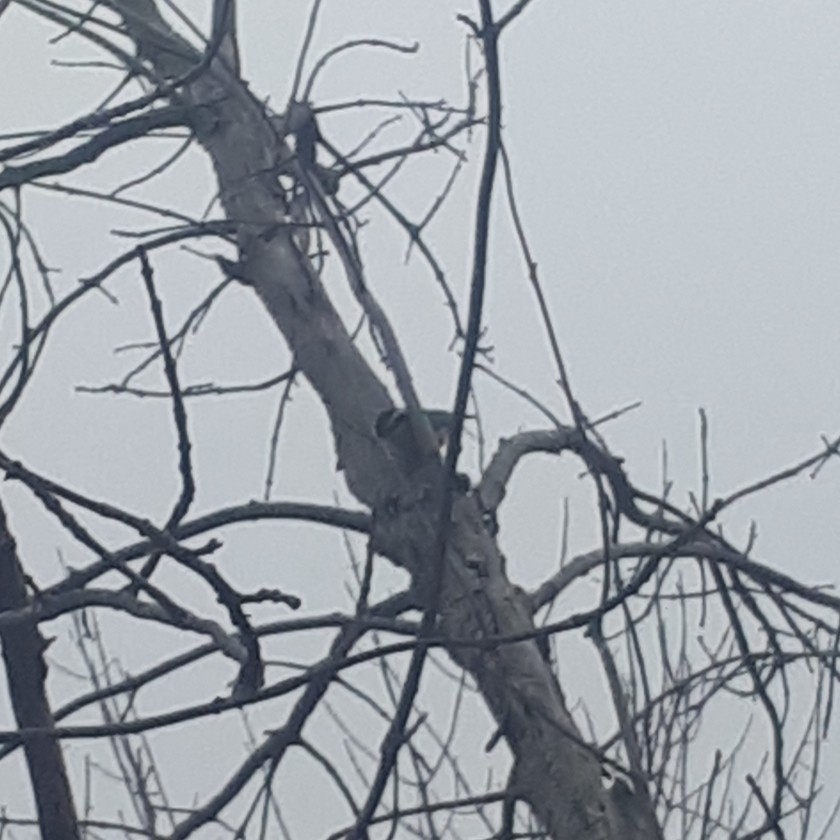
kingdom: Animalia
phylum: Chordata
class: Aves
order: Passeriformes
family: Sittidae
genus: Sitta
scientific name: Sitta canadensis
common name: Red-breasted nuthatch
